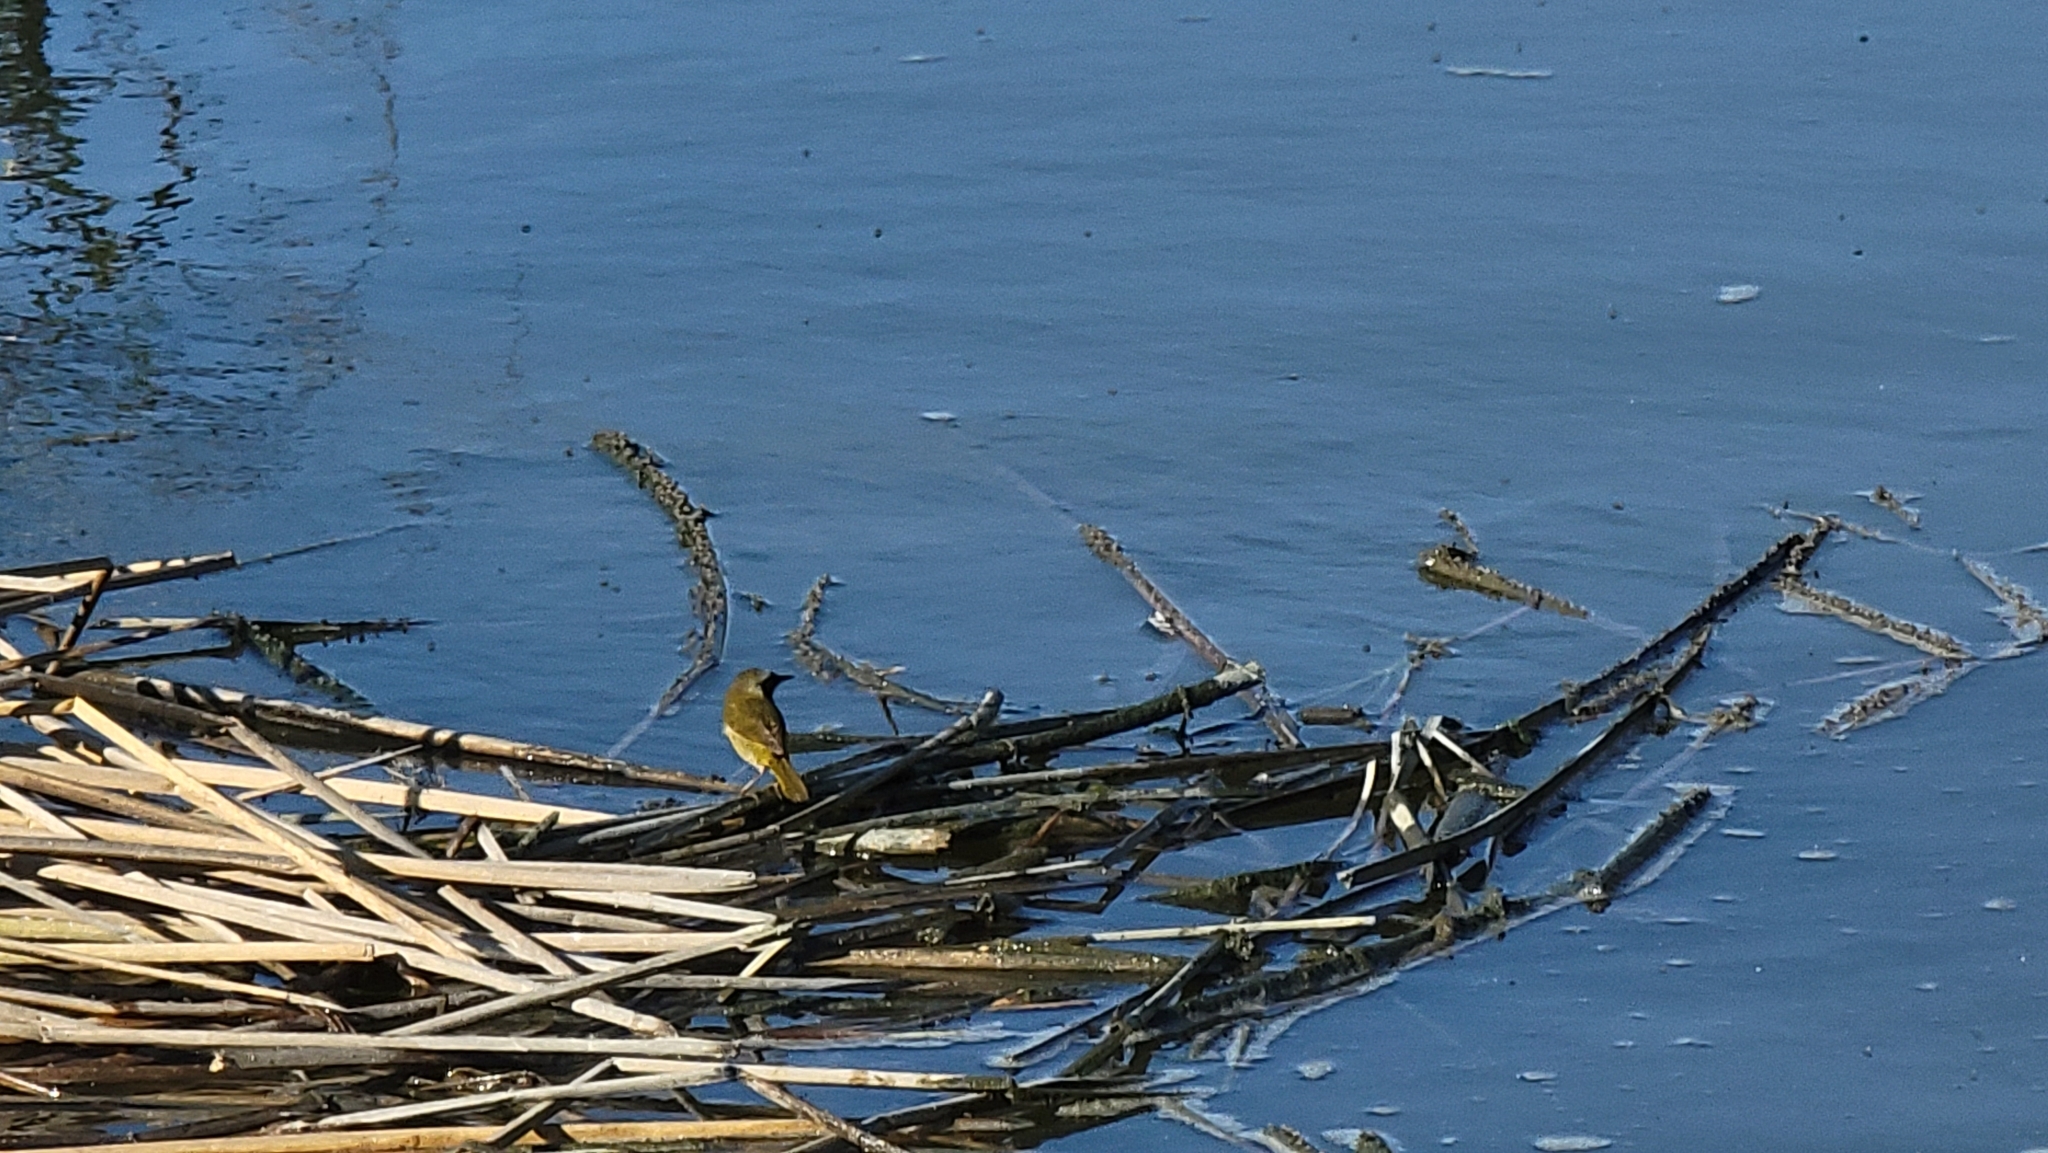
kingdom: Animalia
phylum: Chordata
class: Aves
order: Passeriformes
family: Parulidae
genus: Geothlypis
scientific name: Geothlypis trichas
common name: Common yellowthroat
